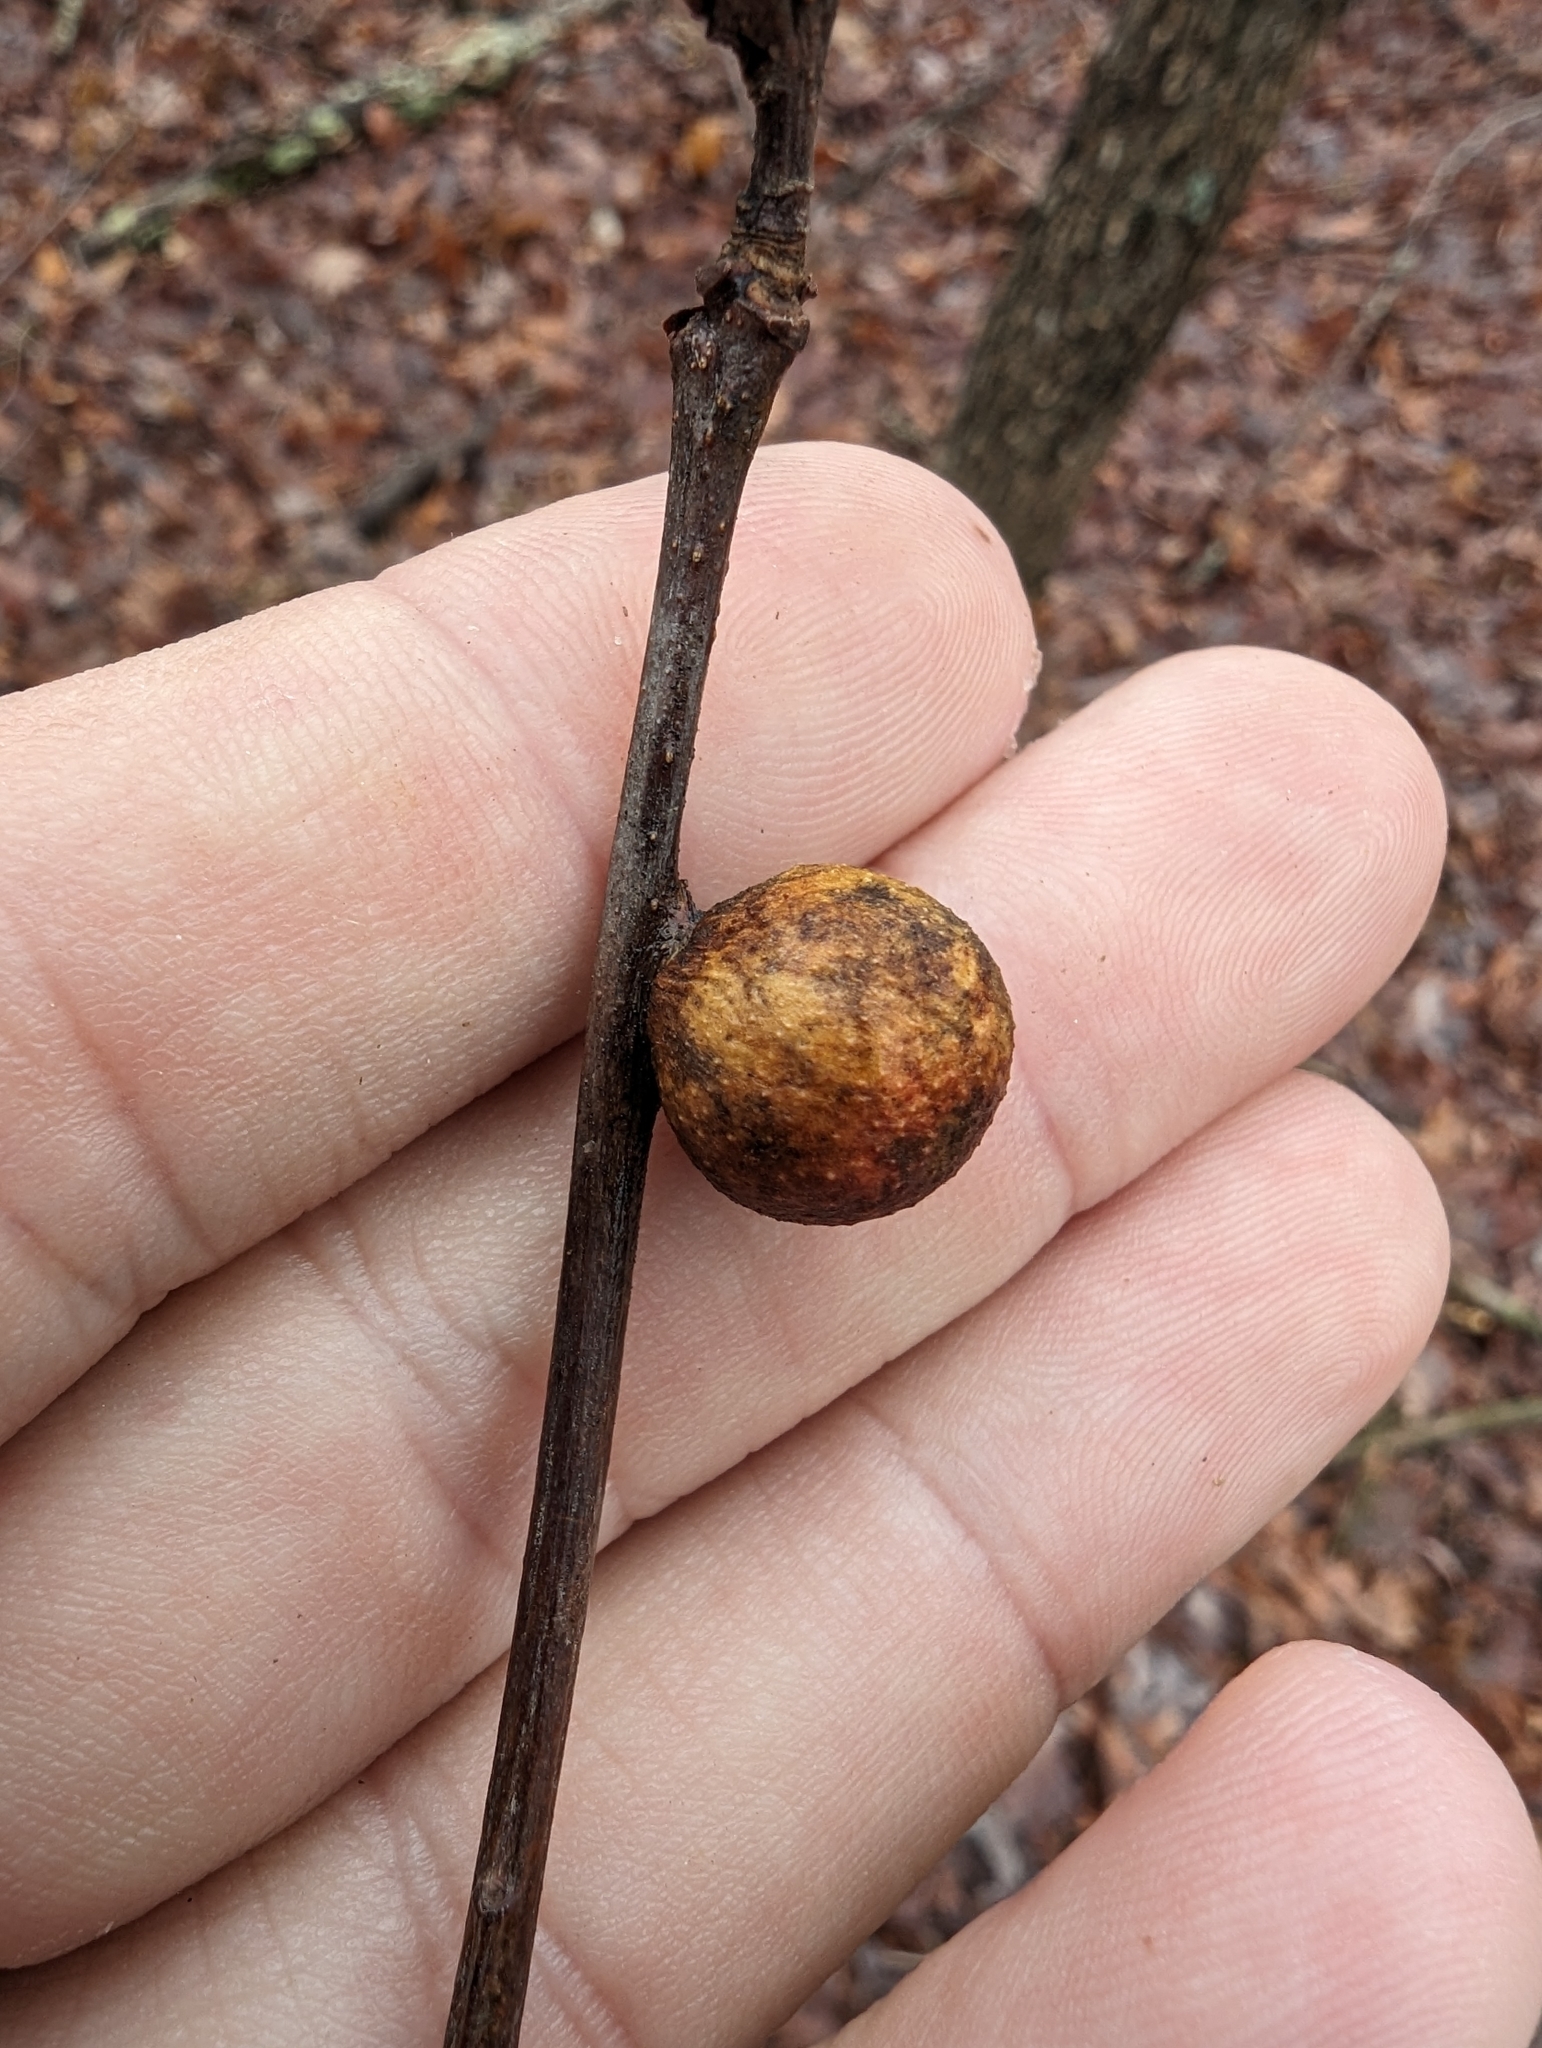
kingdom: Animalia
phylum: Arthropoda
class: Insecta
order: Hymenoptera
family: Cynipidae
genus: Disholcaspis
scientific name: Disholcaspis quercusglobulus
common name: Round bullet gall wasp
